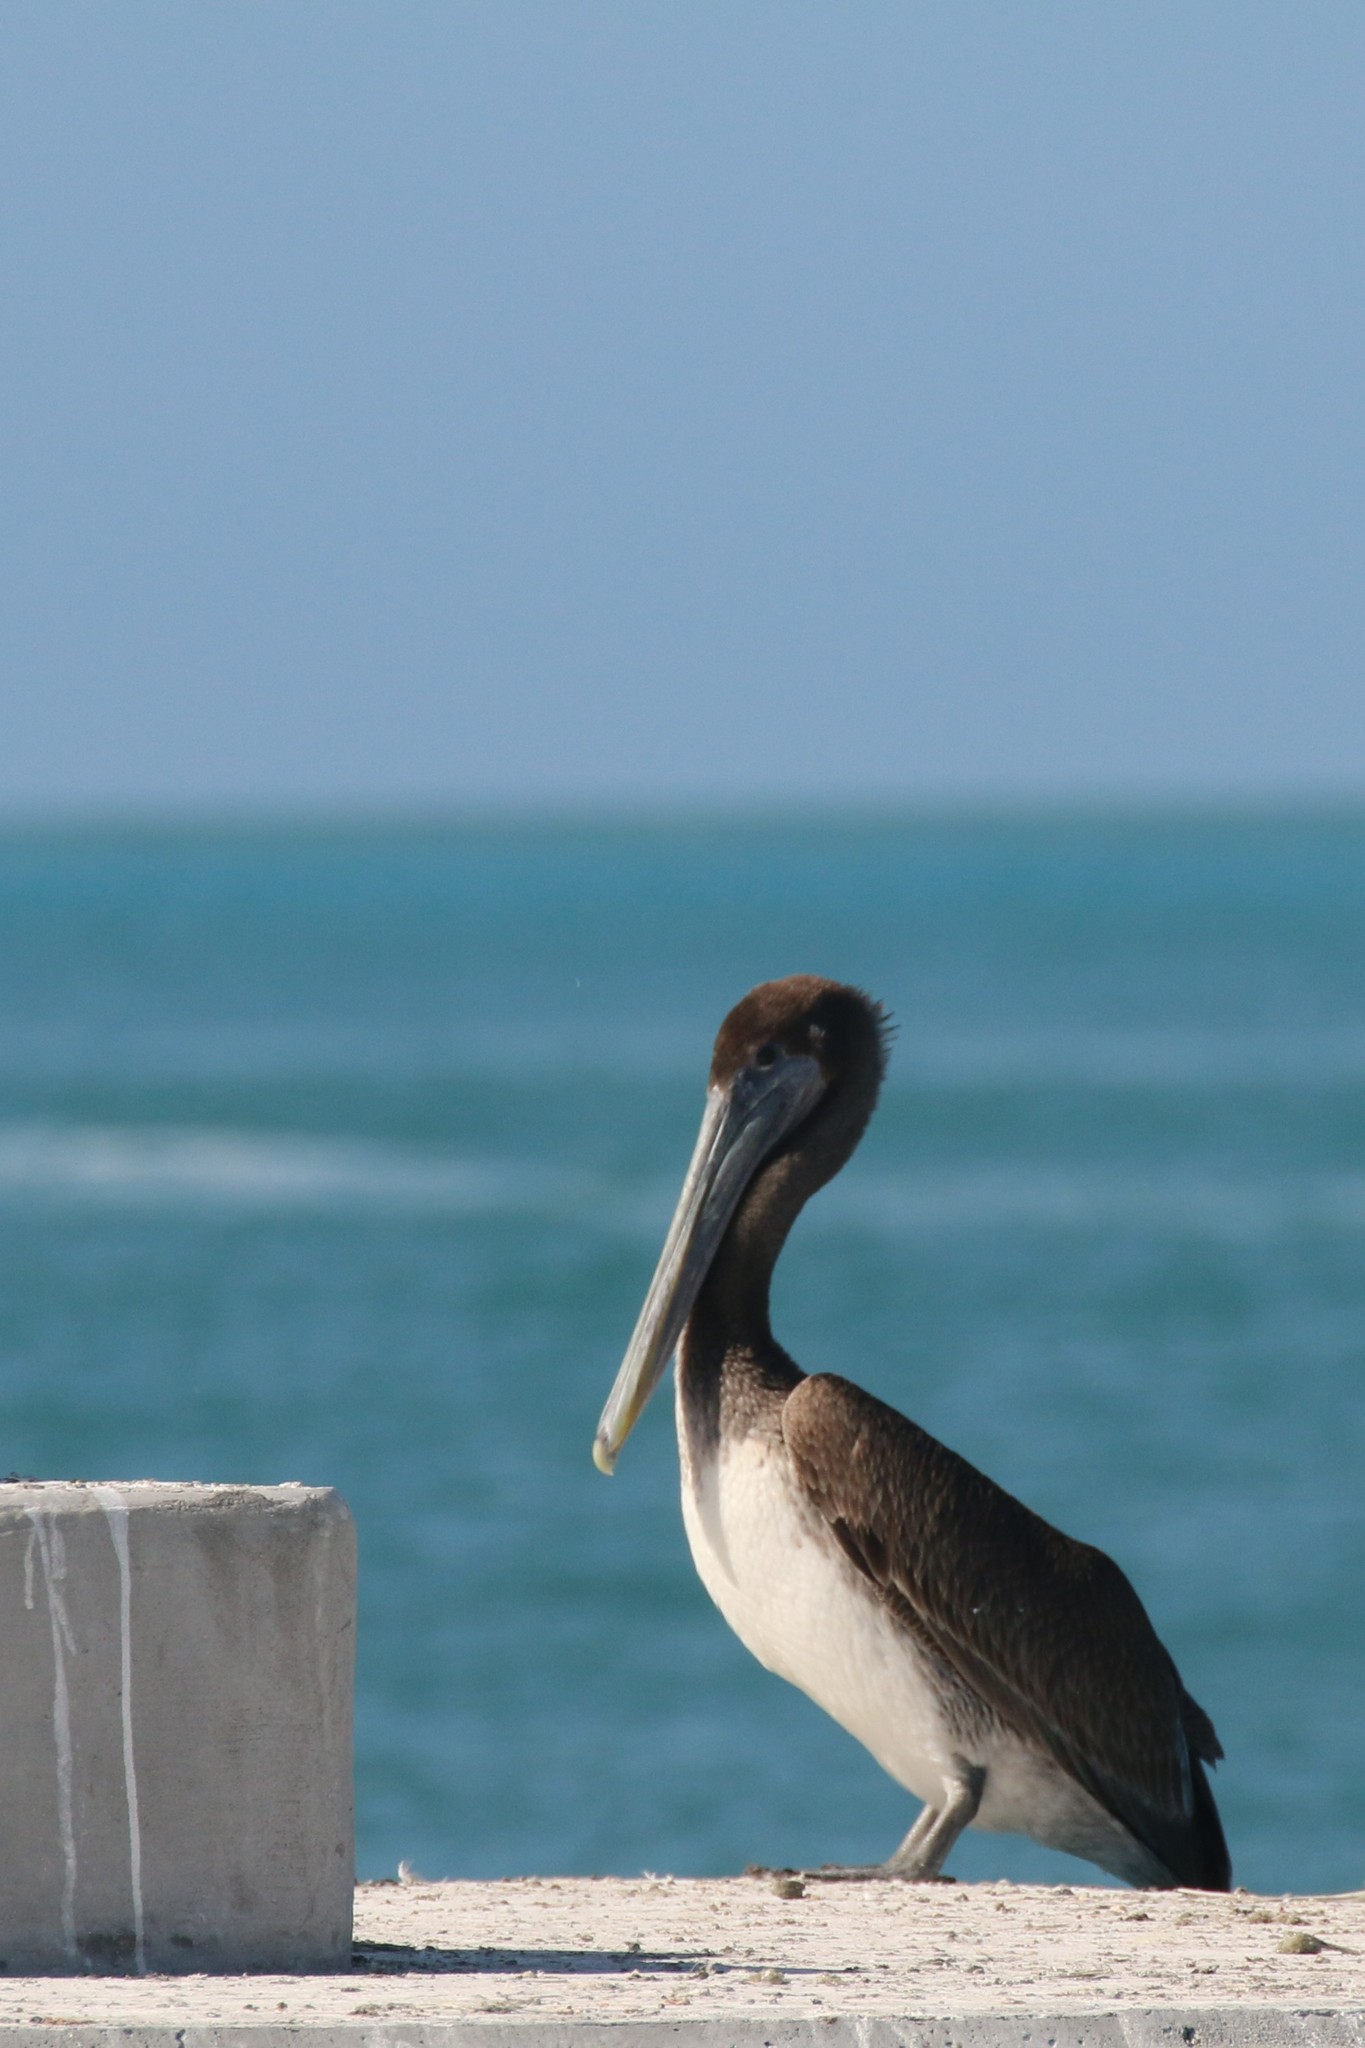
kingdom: Animalia
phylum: Chordata
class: Aves
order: Pelecaniformes
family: Pelecanidae
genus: Pelecanus
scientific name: Pelecanus occidentalis
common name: Brown pelican
